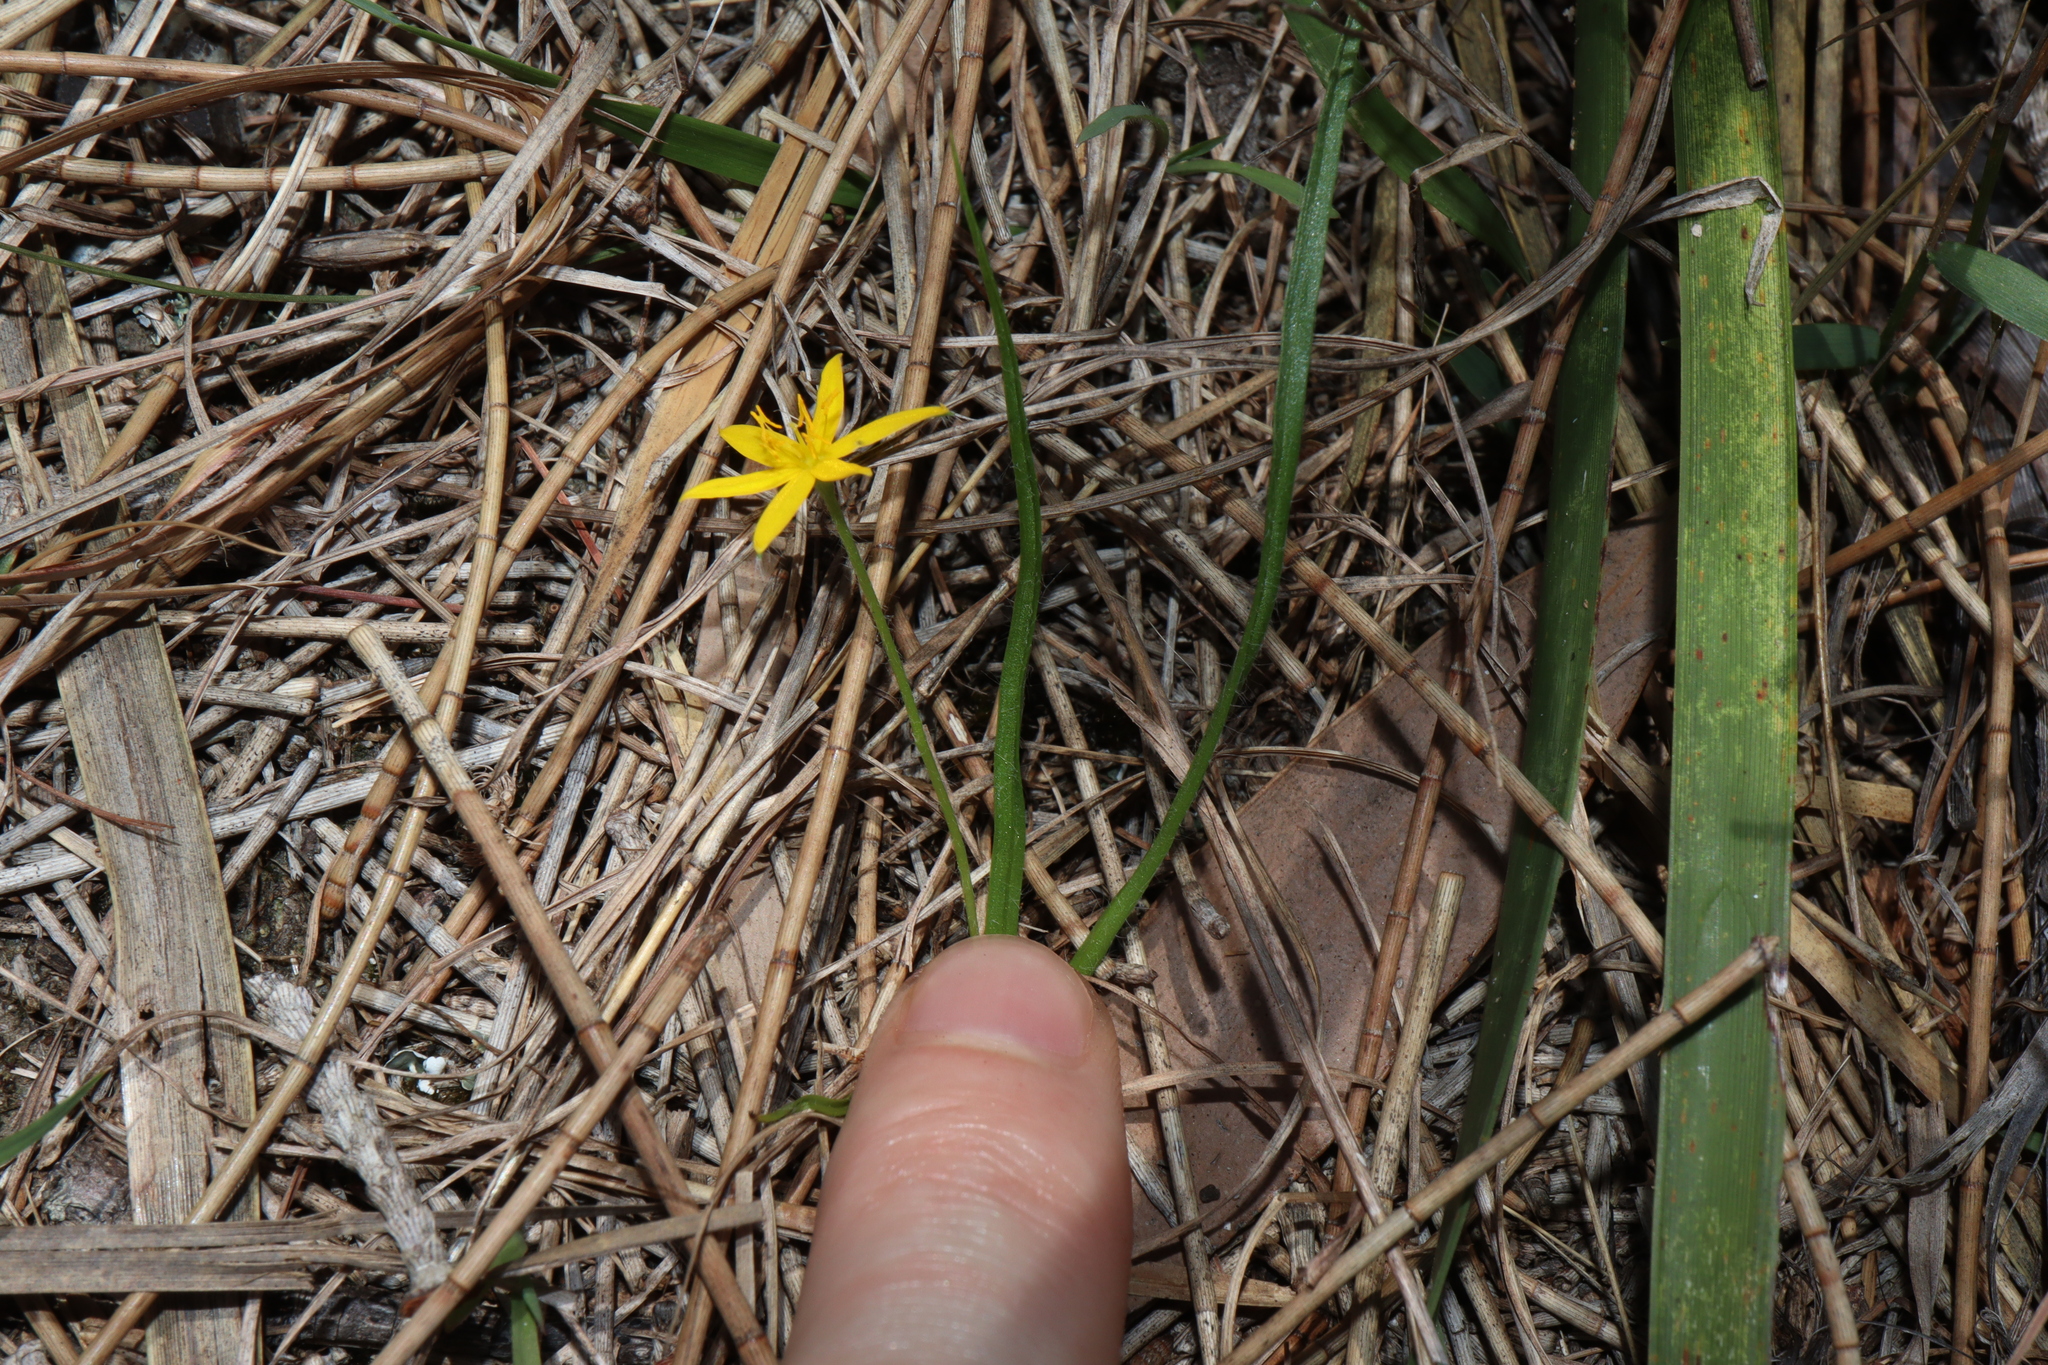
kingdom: Plantae
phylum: Tracheophyta
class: Liliopsida
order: Asparagales
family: Hypoxidaceae
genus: Hypoxis
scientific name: Hypoxis hygrometrica
